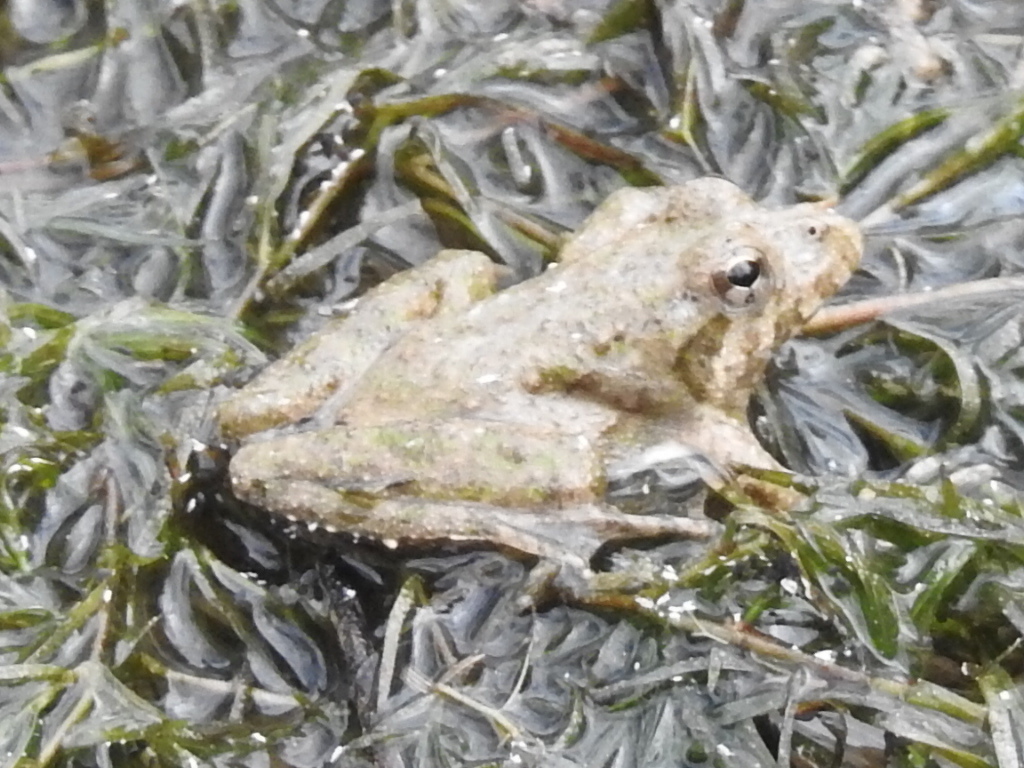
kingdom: Animalia
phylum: Chordata
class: Amphibia
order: Anura
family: Hylidae
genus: Acris
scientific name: Acris blanchardi
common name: Blanchard's cricket frog
